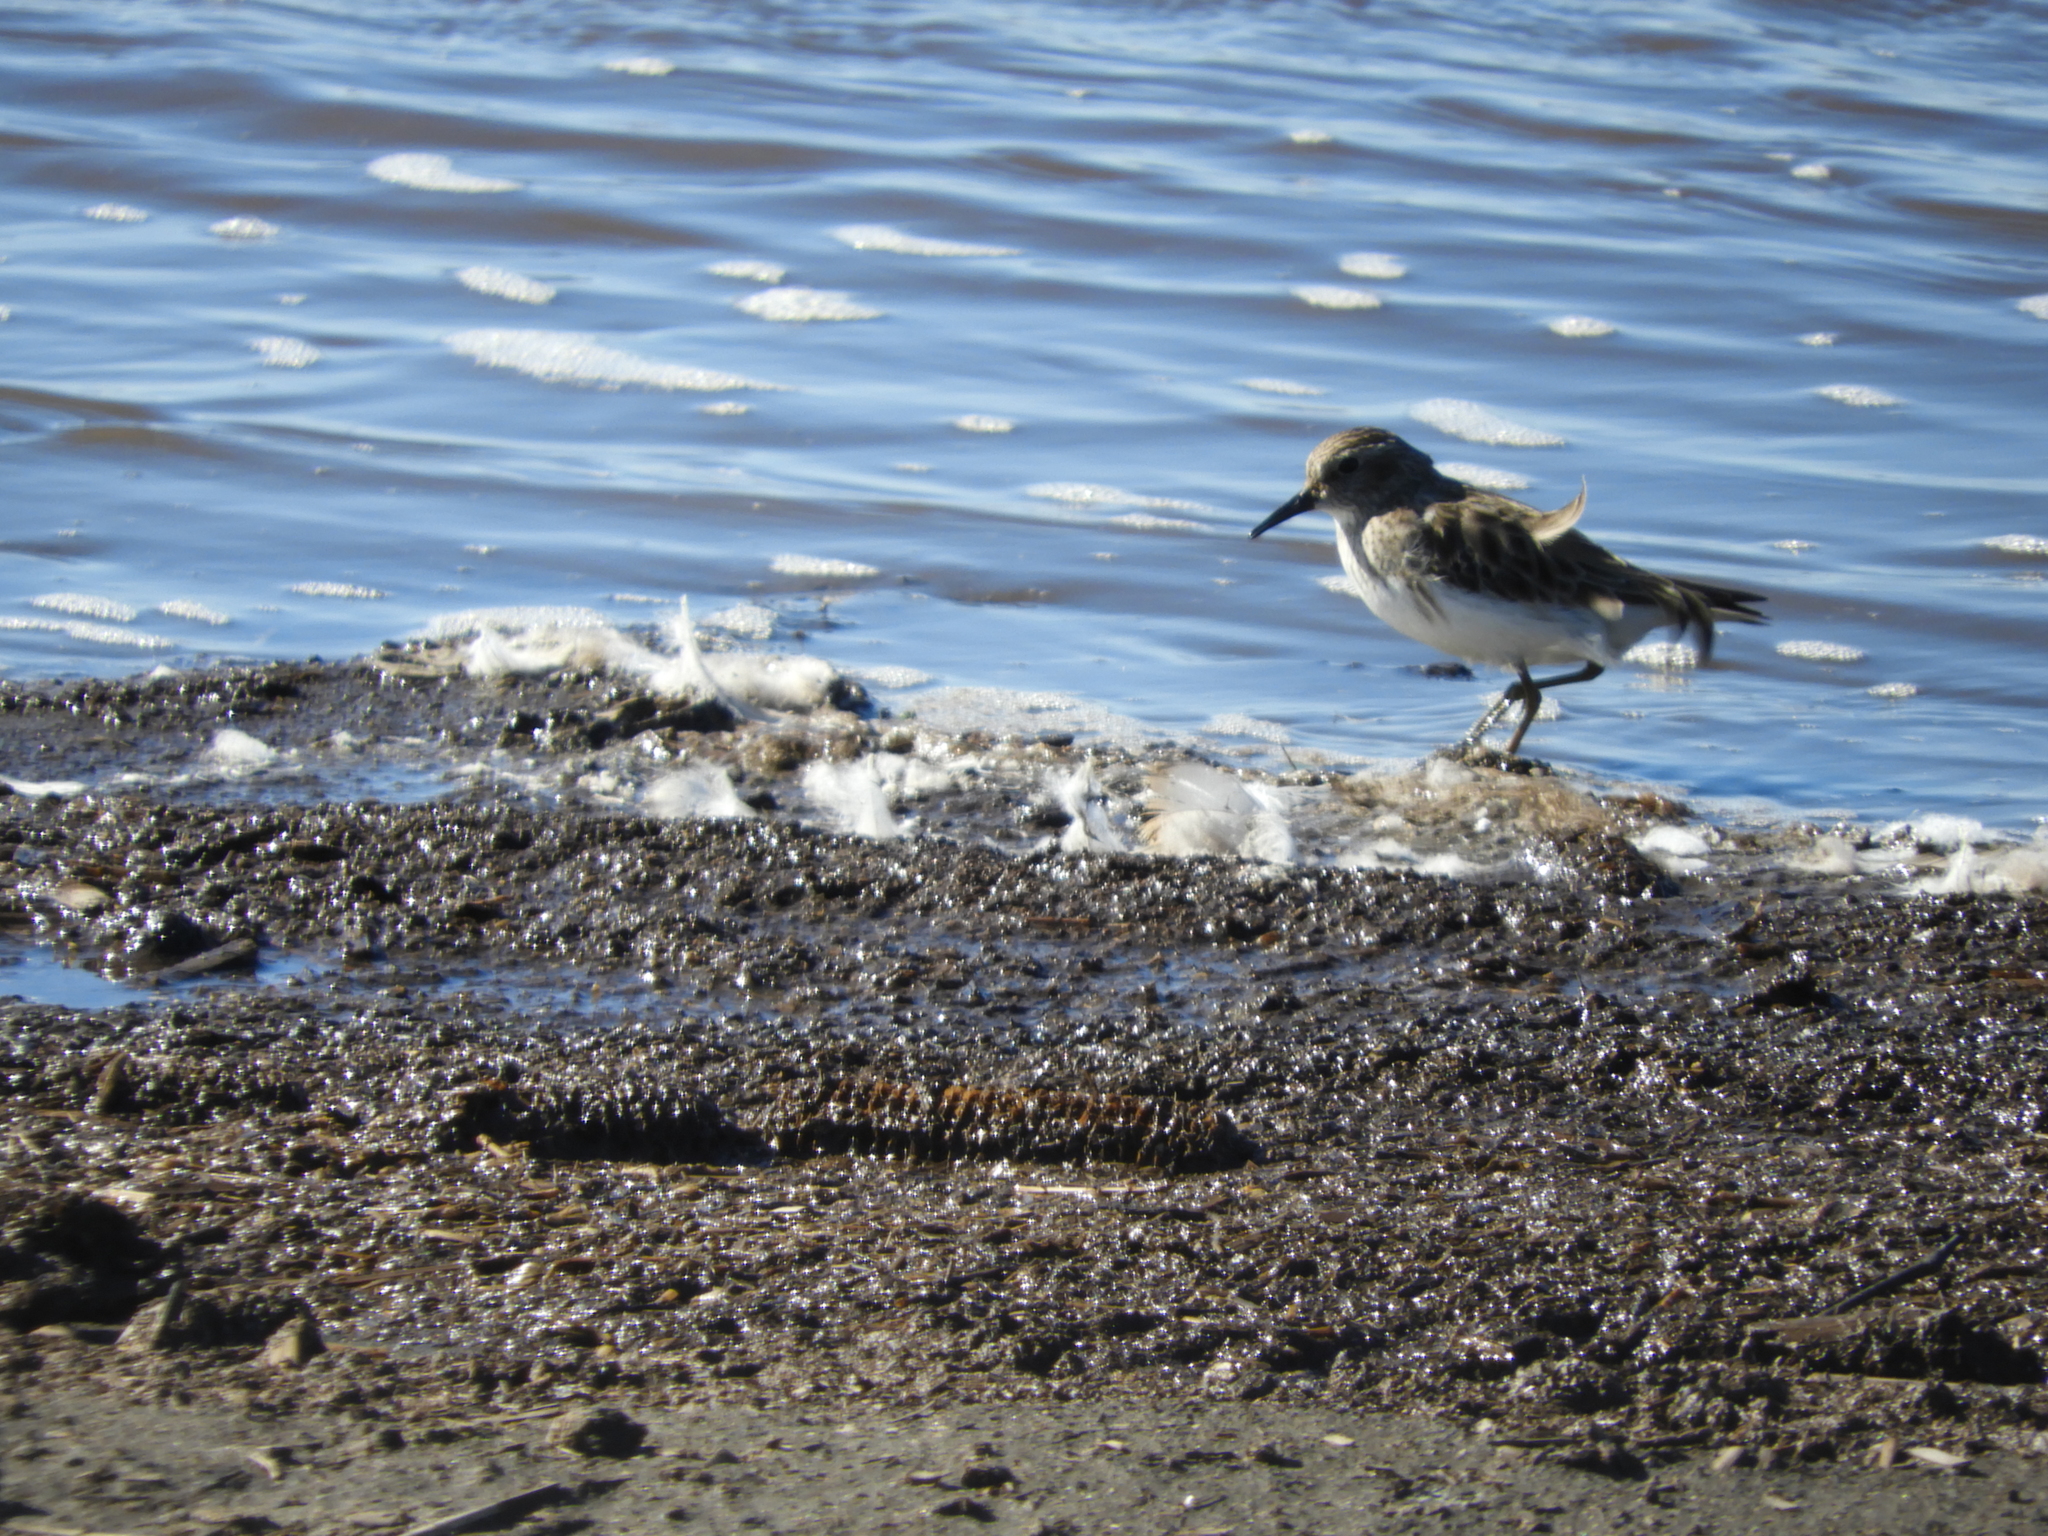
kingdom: Animalia
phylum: Chordata
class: Aves
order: Charadriiformes
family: Scolopacidae
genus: Calidris
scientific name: Calidris minutilla
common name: Least sandpiper
